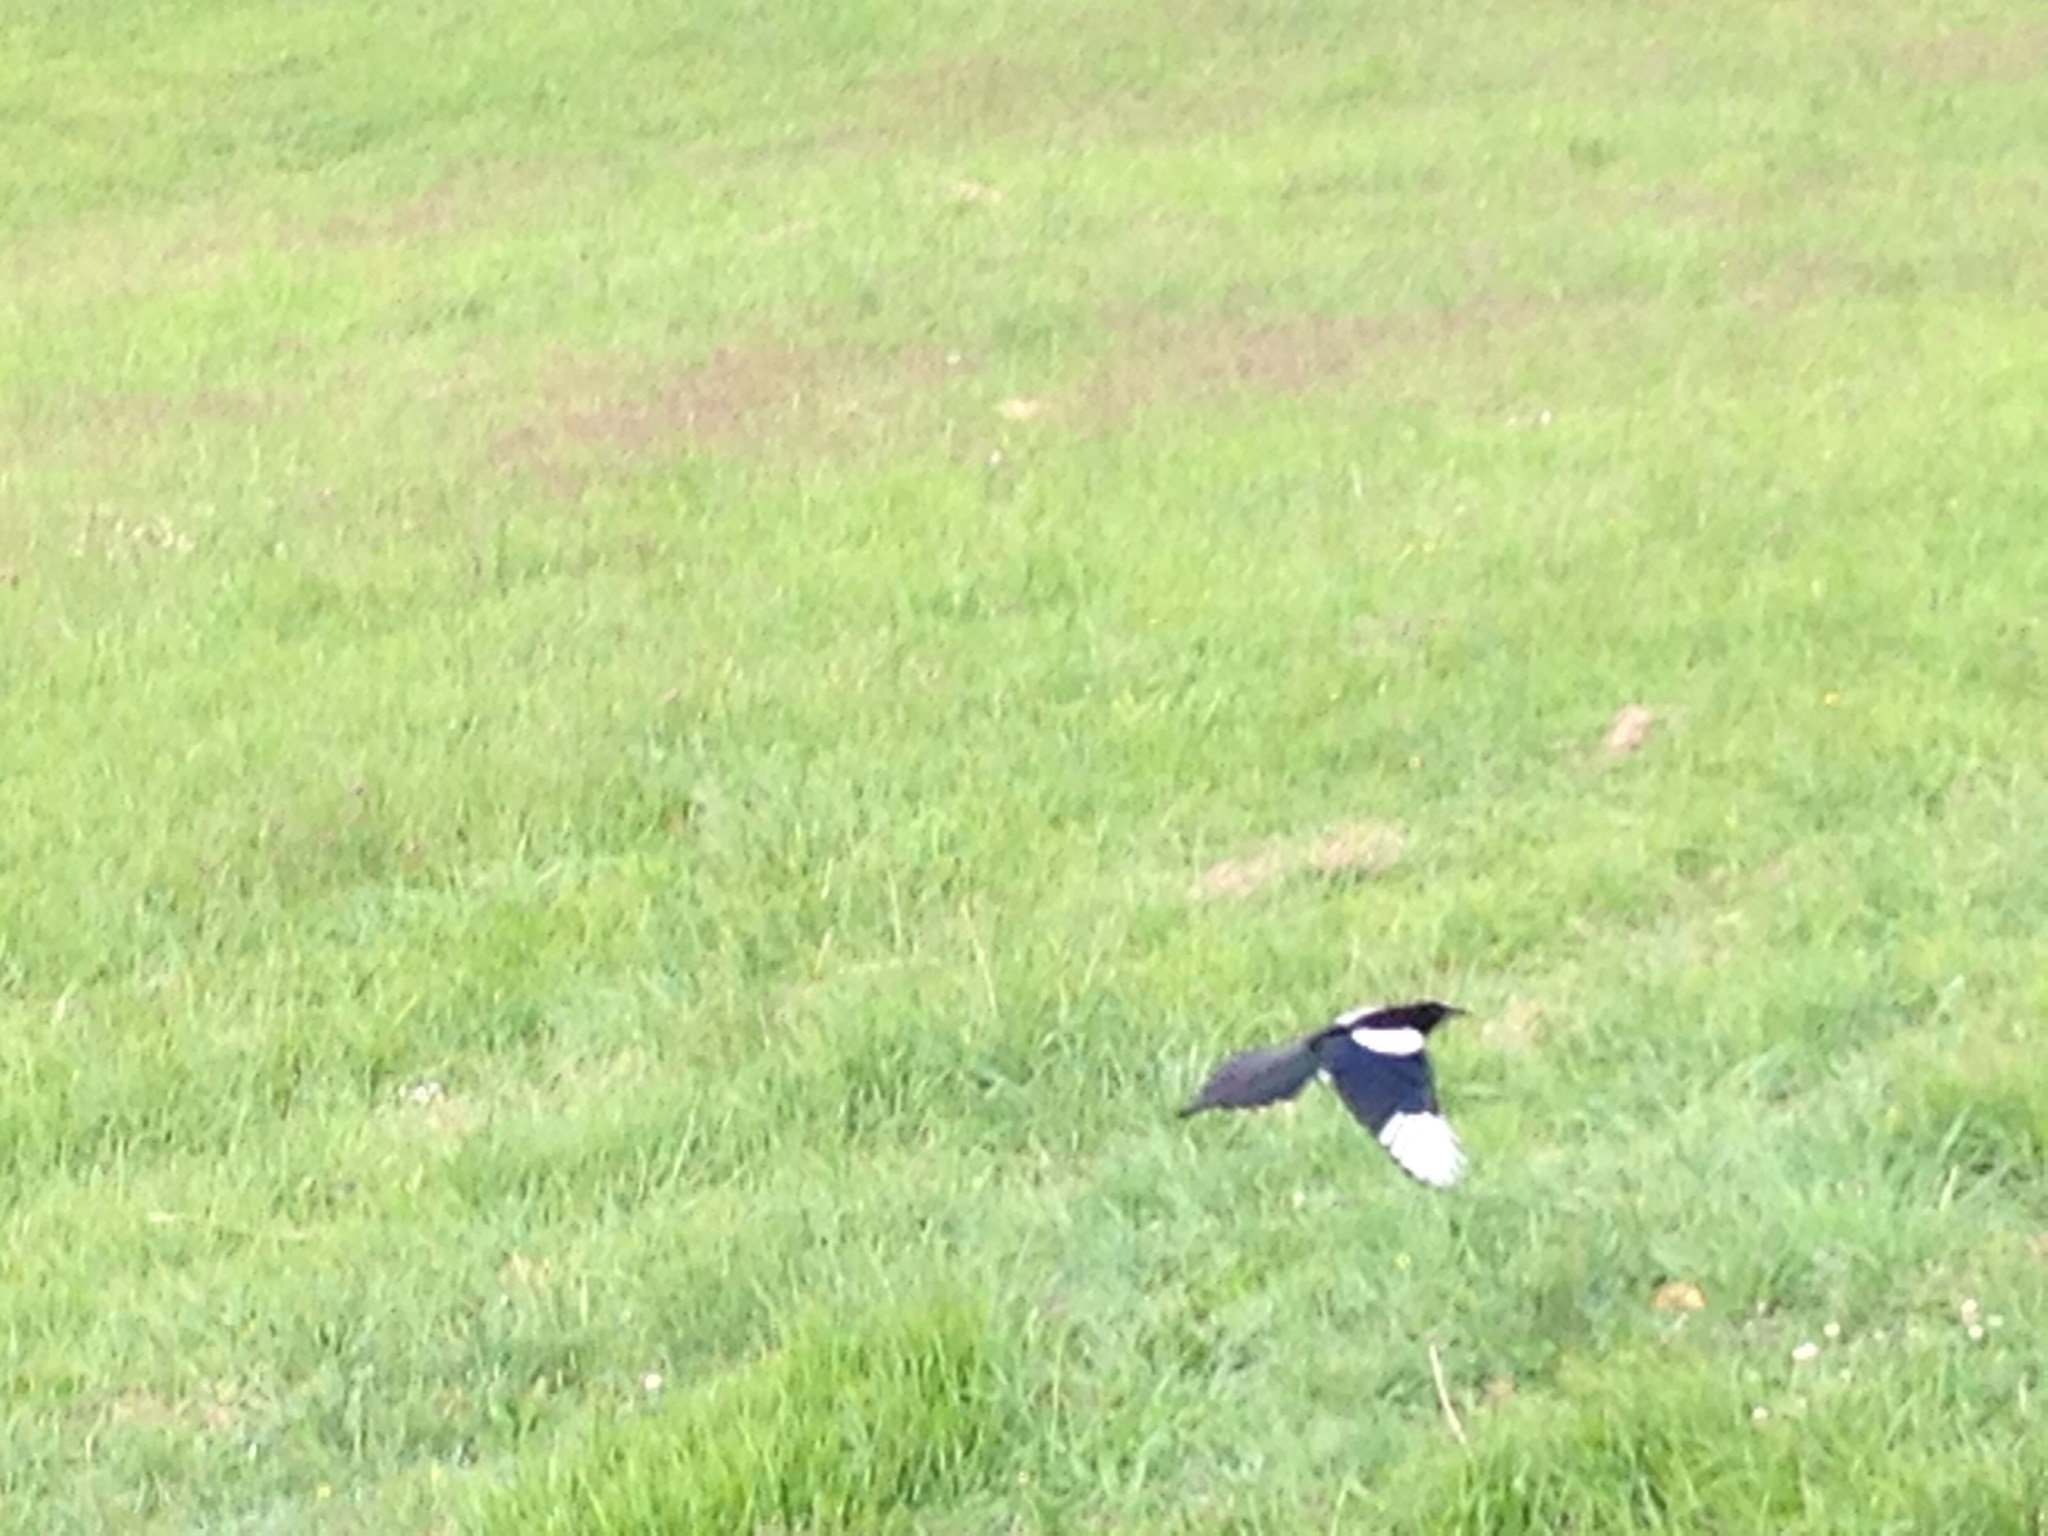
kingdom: Animalia
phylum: Chordata
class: Aves
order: Passeriformes
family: Corvidae
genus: Pica
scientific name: Pica pica
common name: Eurasian magpie
